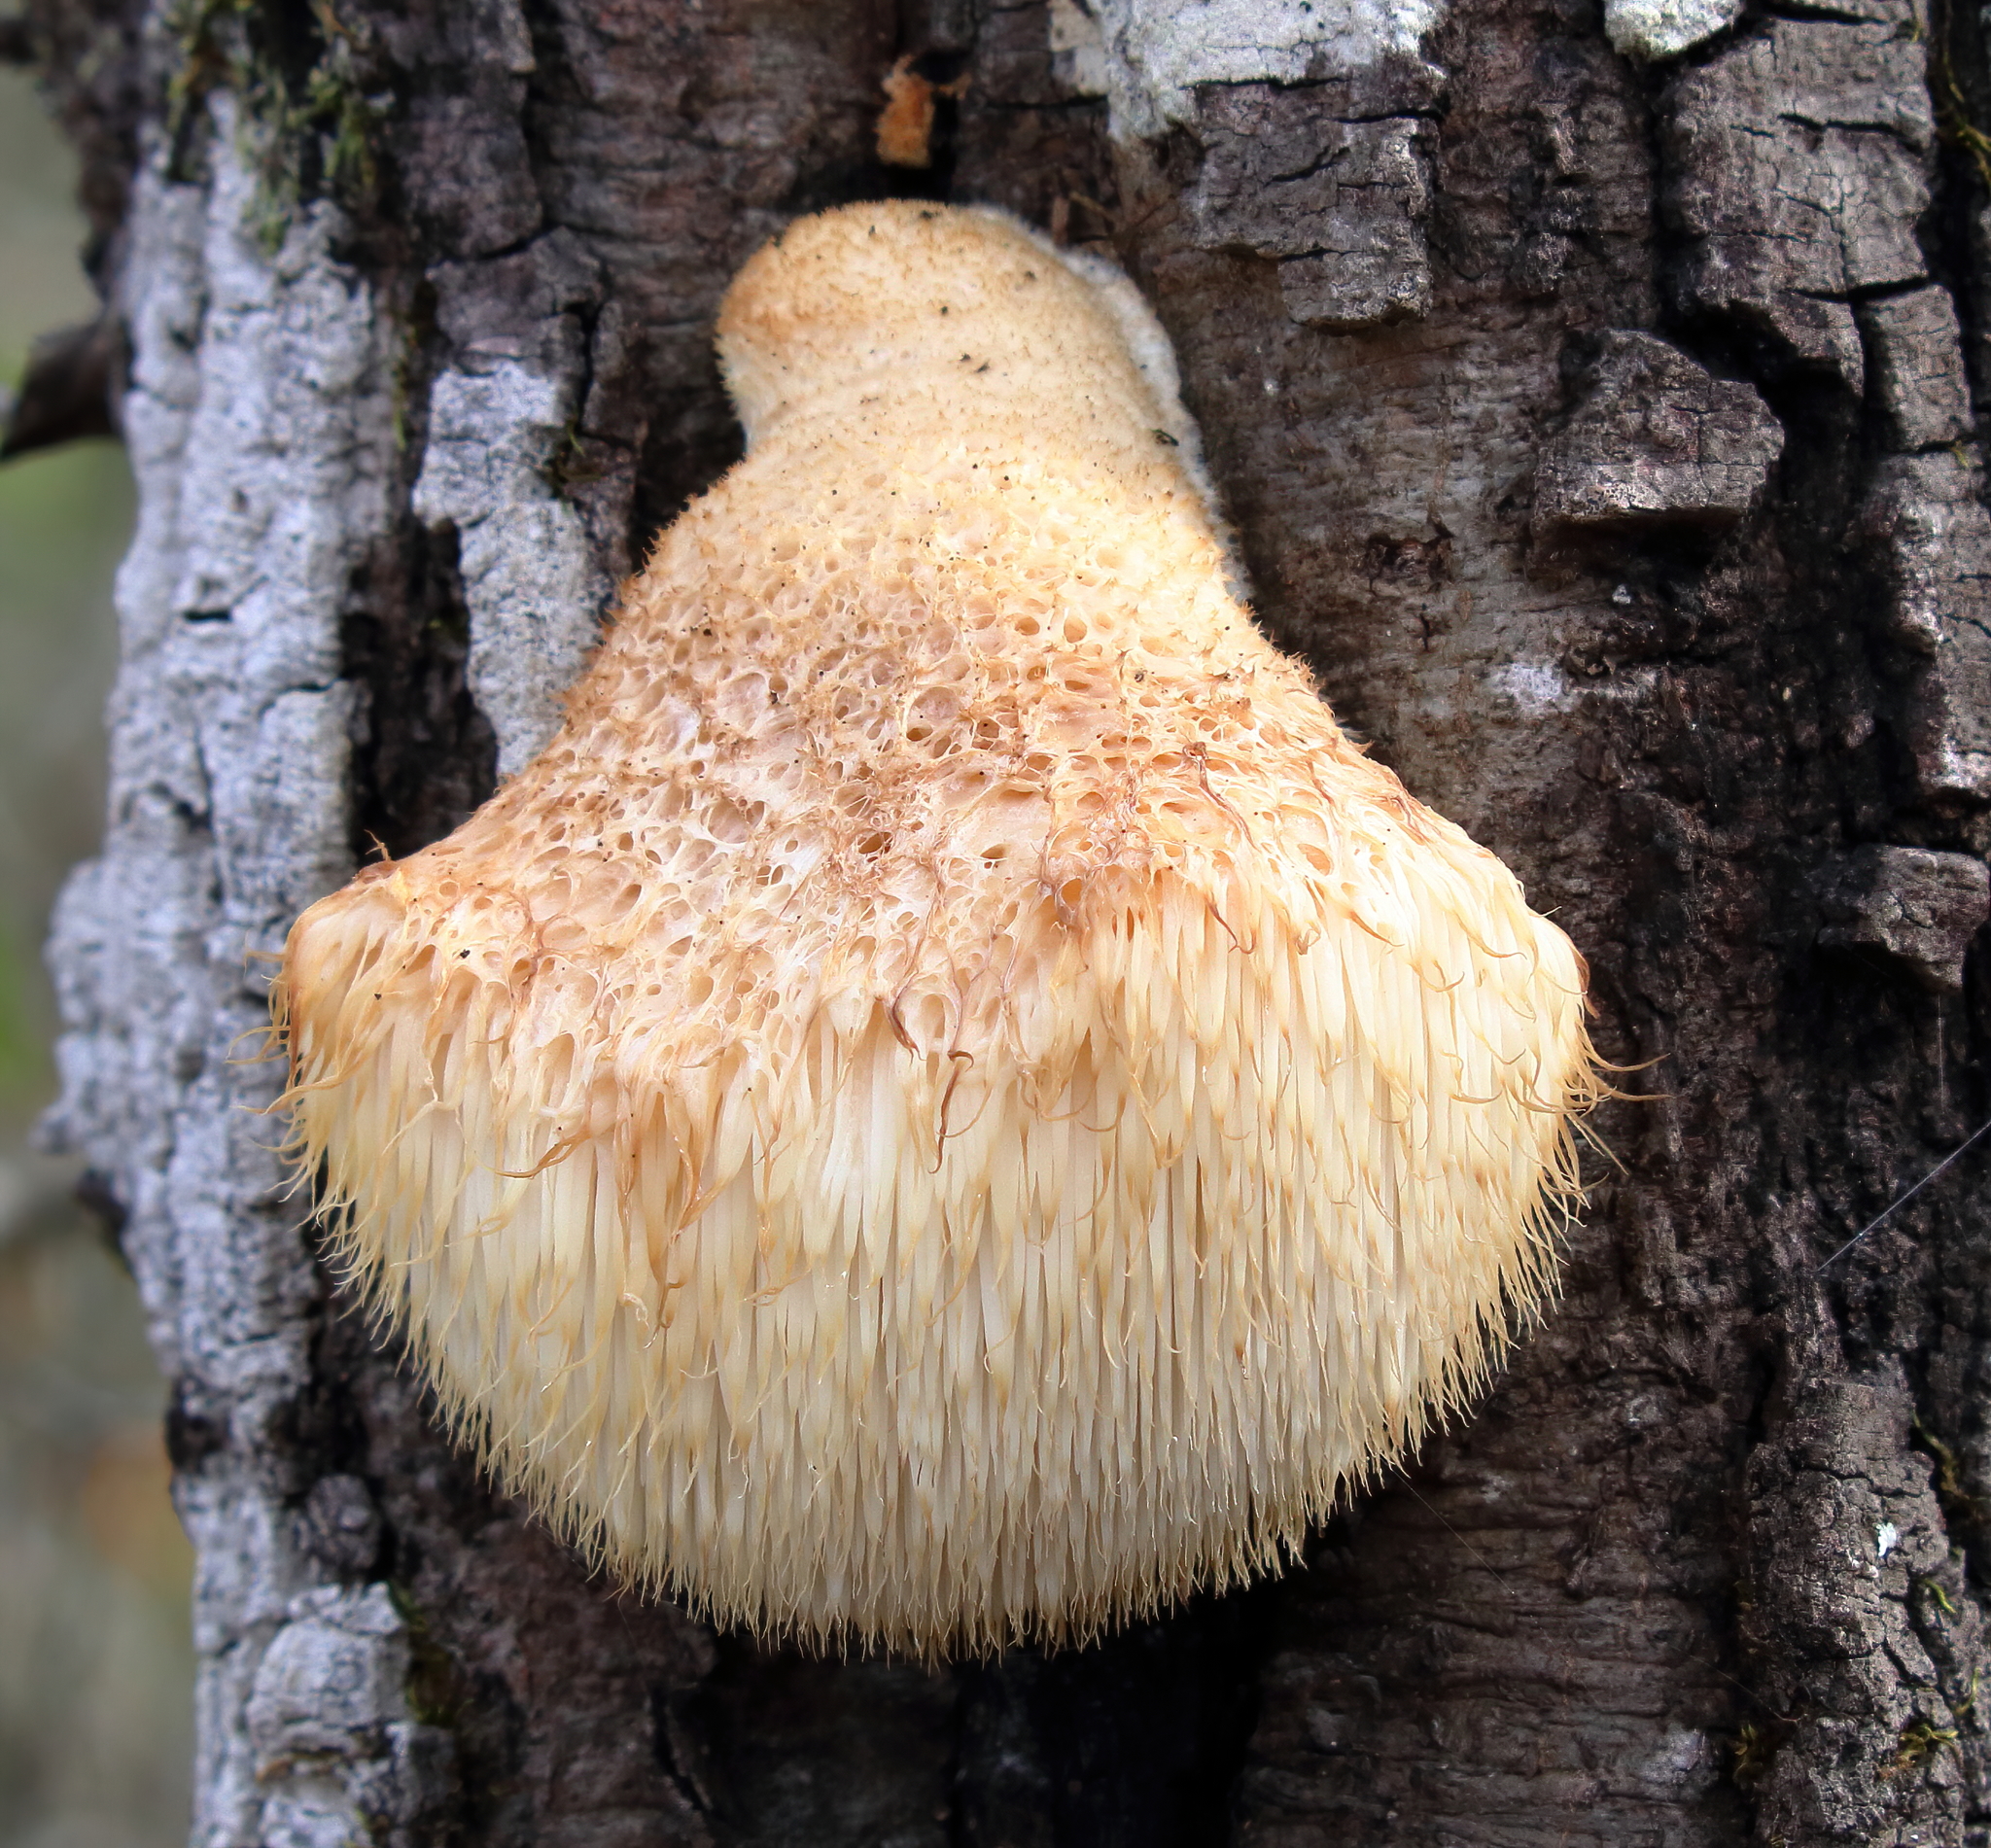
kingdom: Fungi
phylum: Basidiomycota
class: Agaricomycetes
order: Russulales
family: Hericiaceae
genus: Hericium
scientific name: Hericium erinaceus
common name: Bearded tooth
